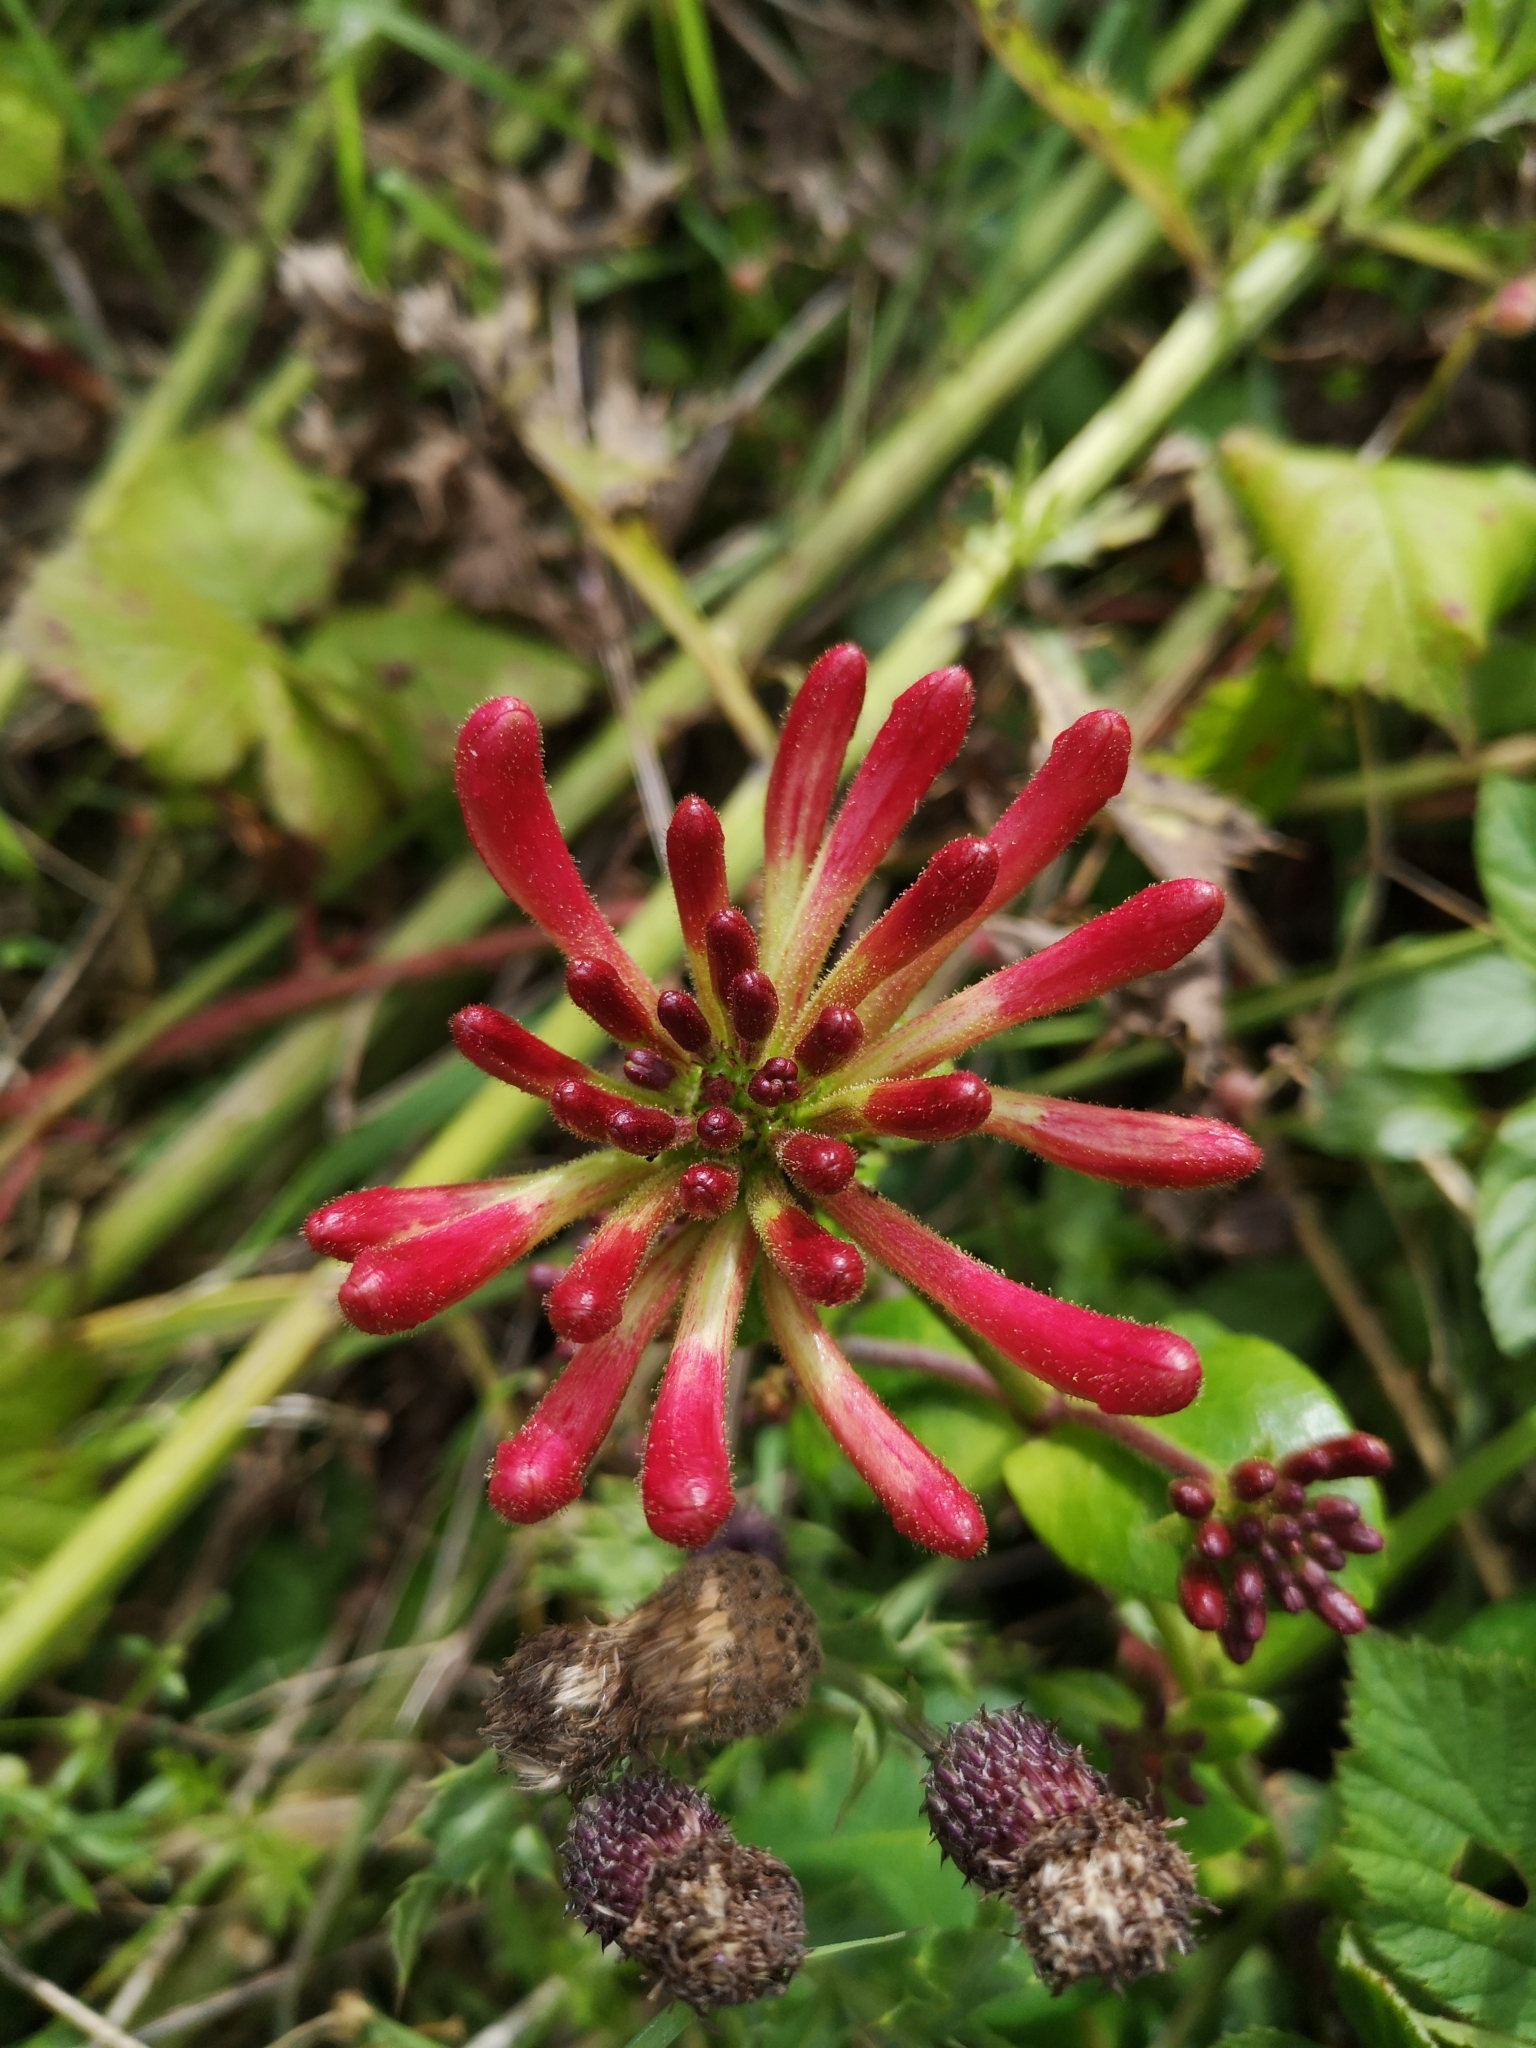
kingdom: Plantae
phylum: Tracheophyta
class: Magnoliopsida
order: Dipsacales
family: Caprifoliaceae
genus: Lonicera
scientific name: Lonicera periclymenum
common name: European honeysuckle
